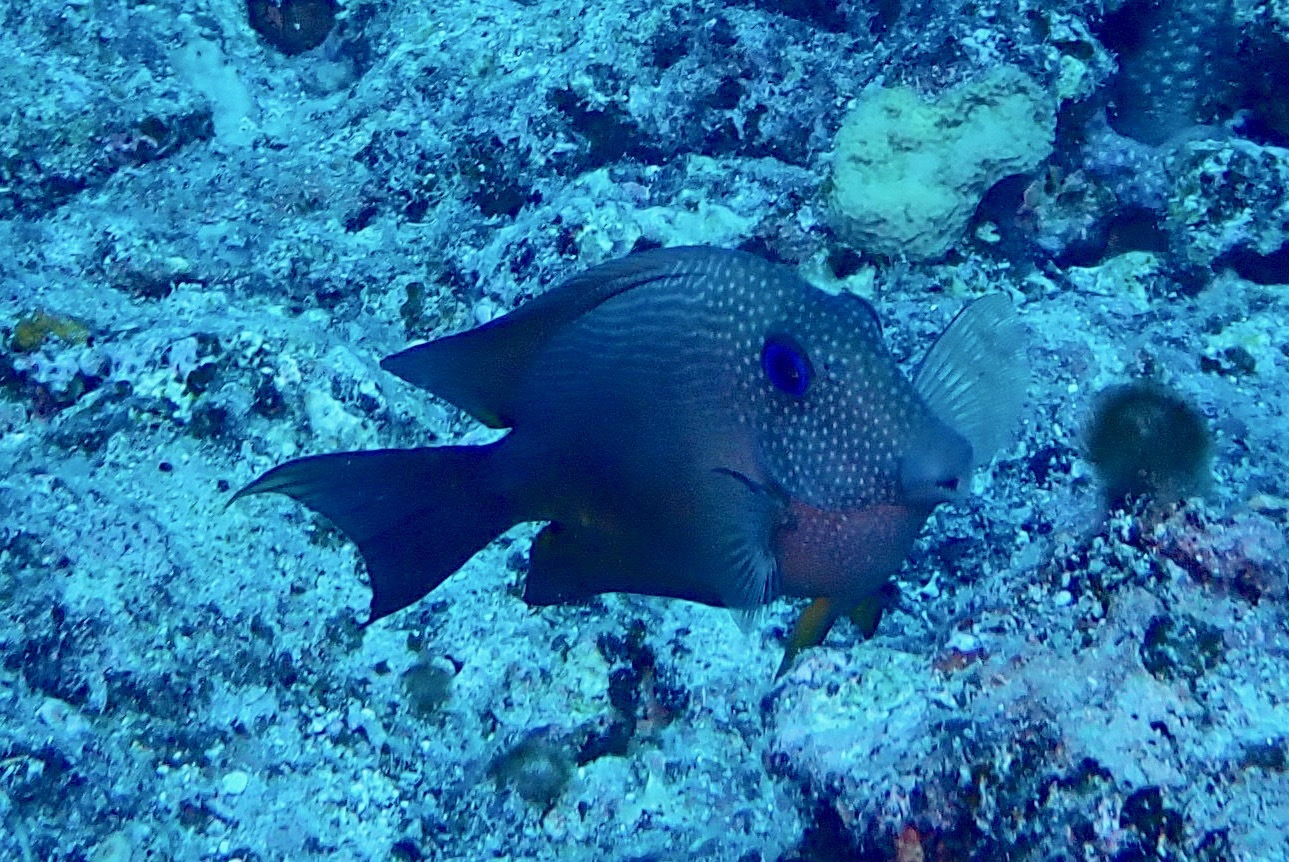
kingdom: Animalia
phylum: Chordata
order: Perciformes
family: Acanthuridae
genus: Ctenochaetus
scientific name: Ctenochaetus binotatus
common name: Two-spot bristletooth
